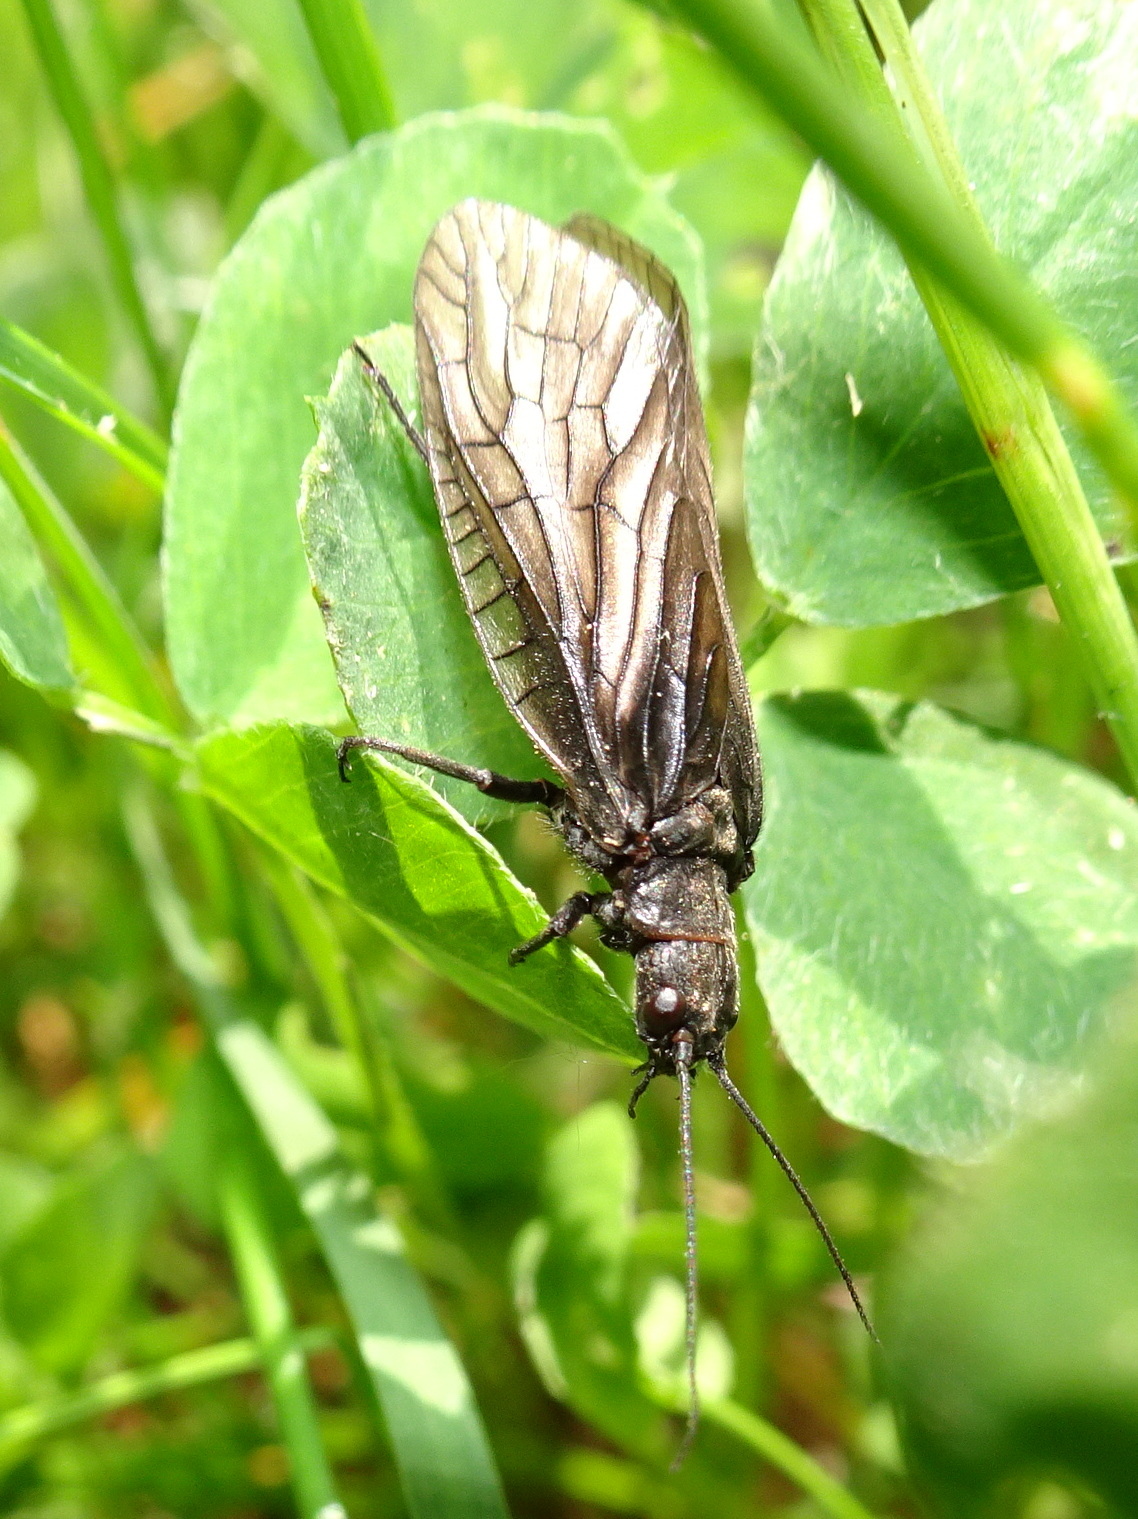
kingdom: Animalia
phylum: Arthropoda
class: Insecta
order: Megaloptera
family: Sialidae
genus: Sialis
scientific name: Sialis
